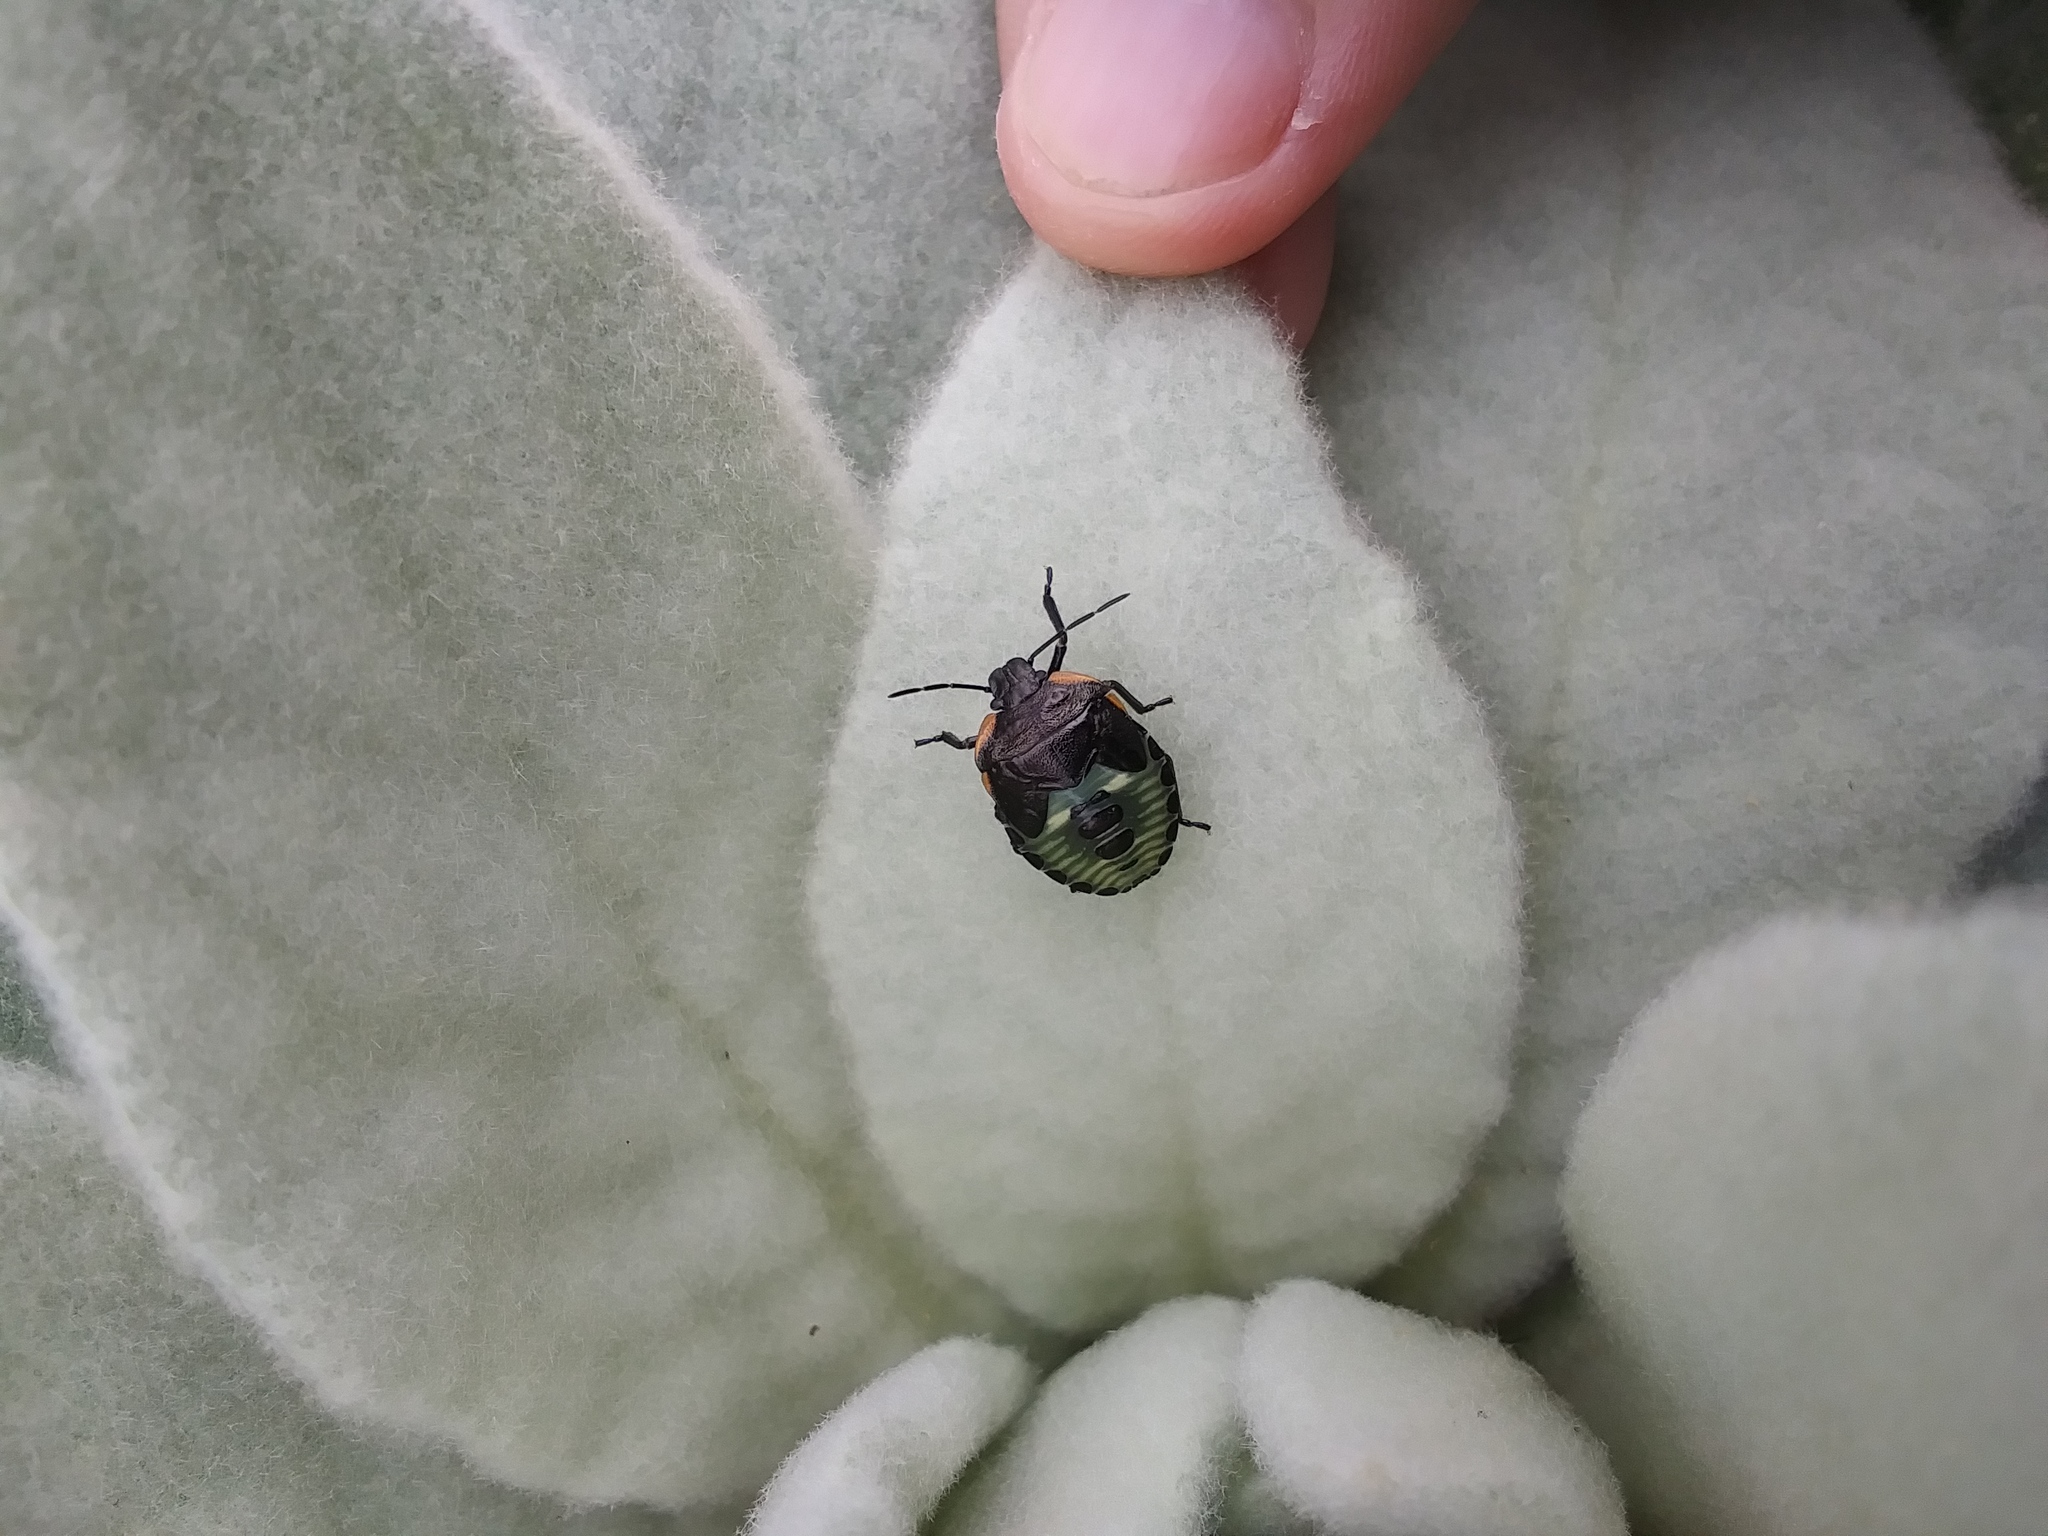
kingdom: Animalia
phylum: Arthropoda
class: Insecta
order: Hemiptera
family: Pentatomidae
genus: Chinavia
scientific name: Chinavia hilaris
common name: Green stink bug
